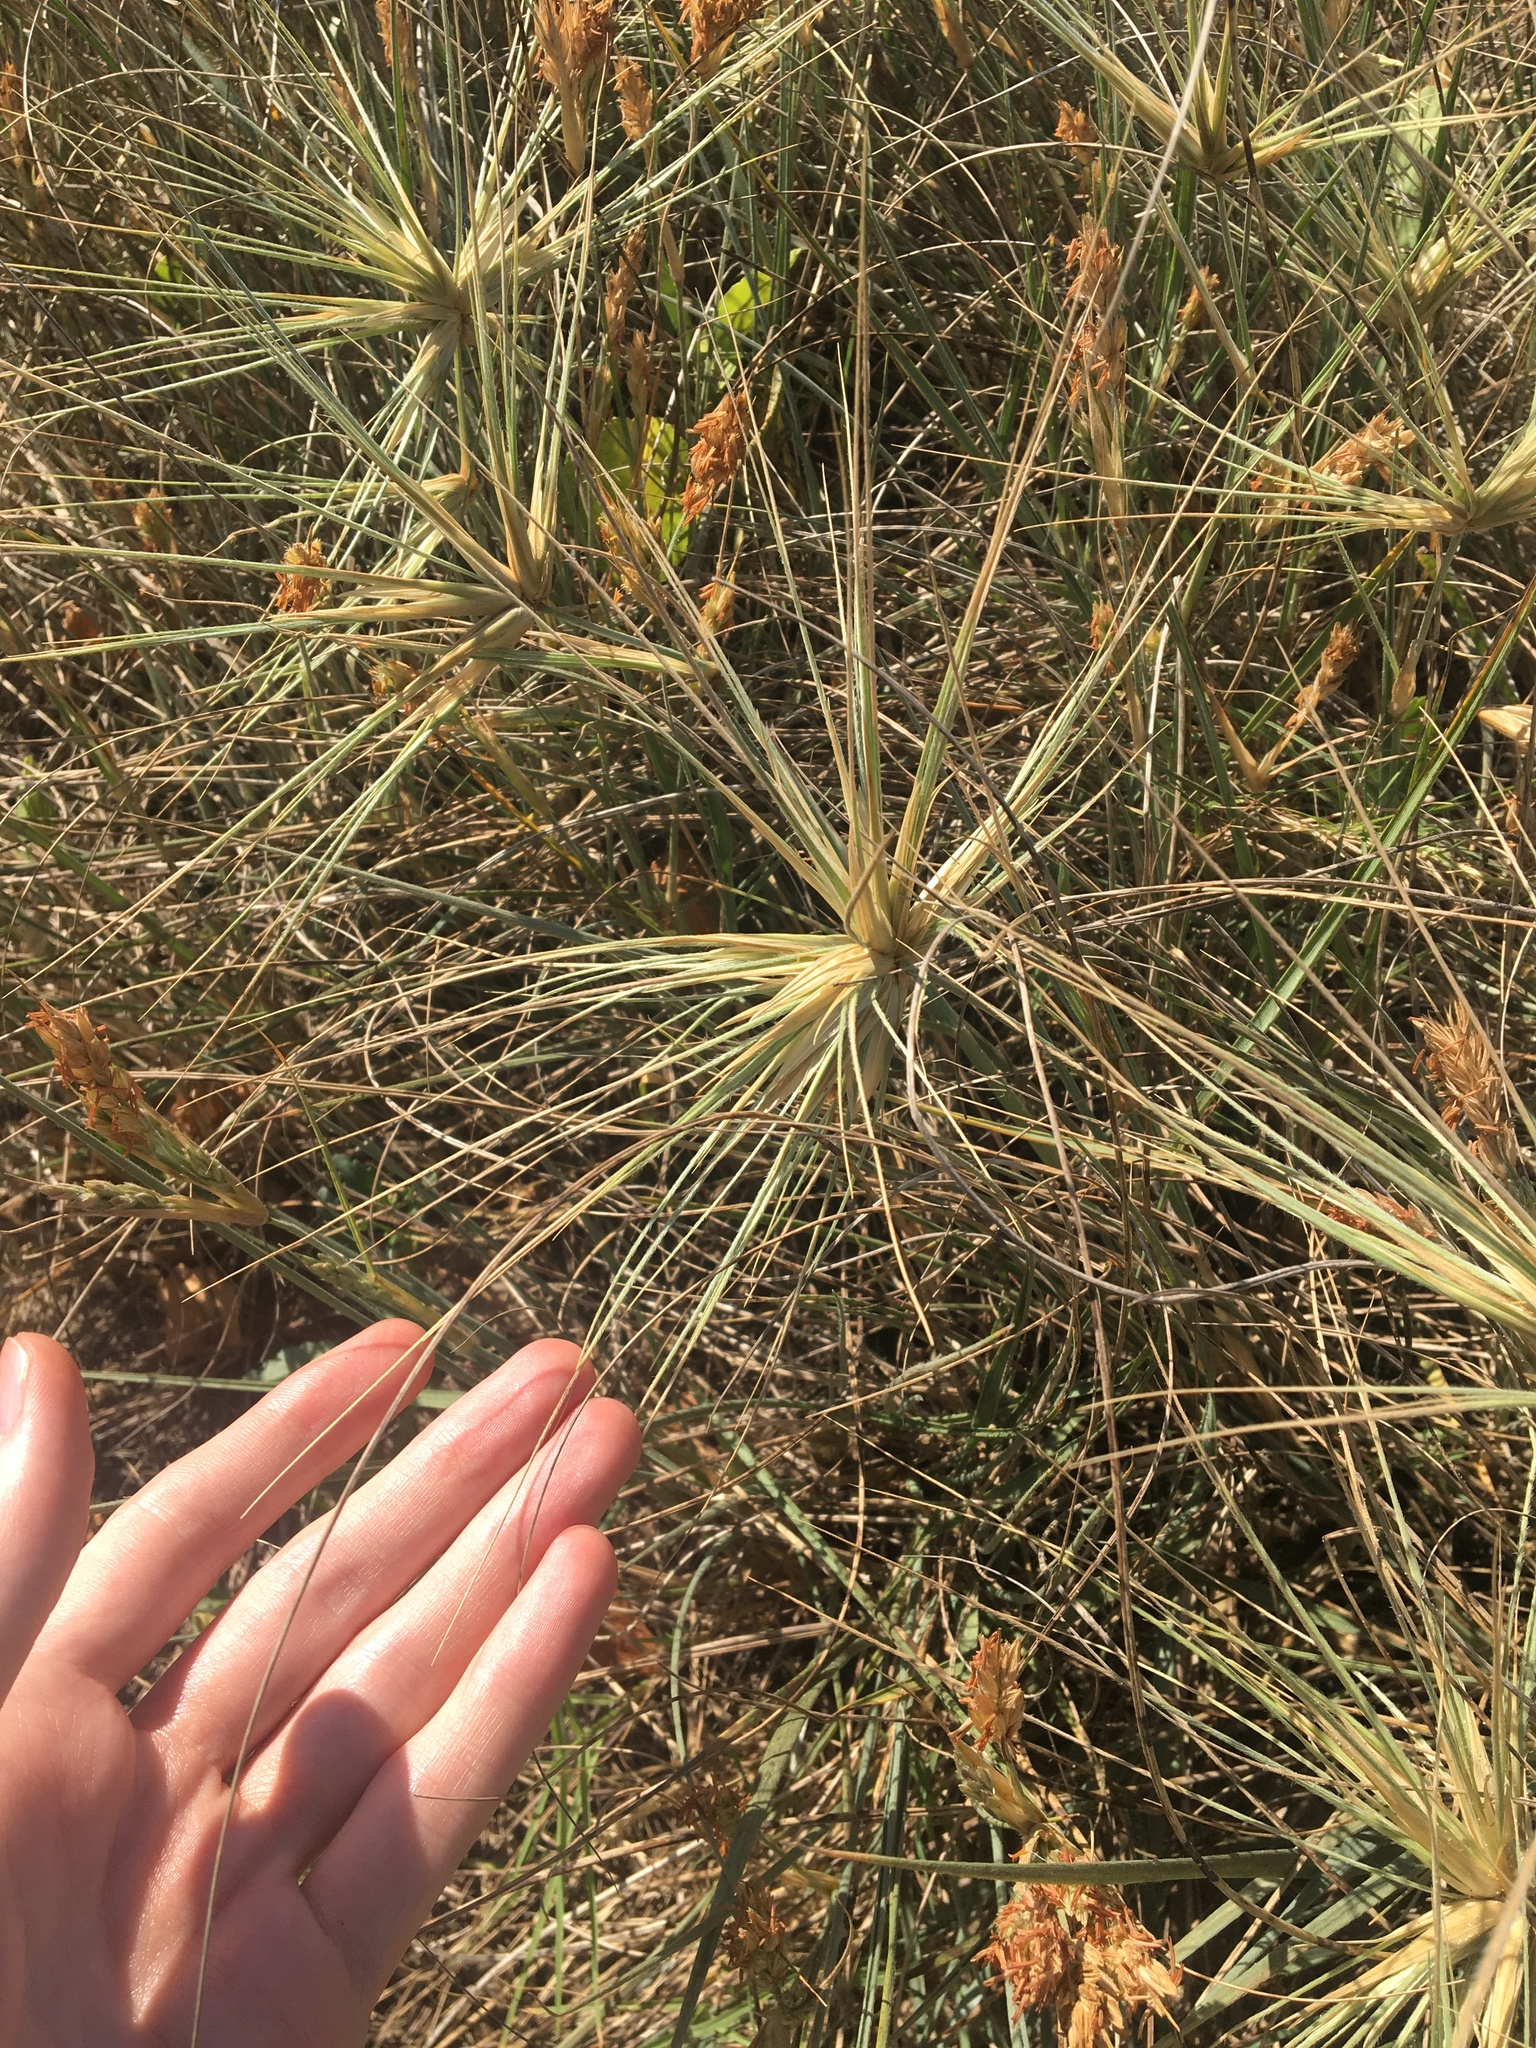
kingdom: Plantae
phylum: Tracheophyta
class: Liliopsida
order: Poales
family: Poaceae
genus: Spinifex
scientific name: Spinifex sericeus
